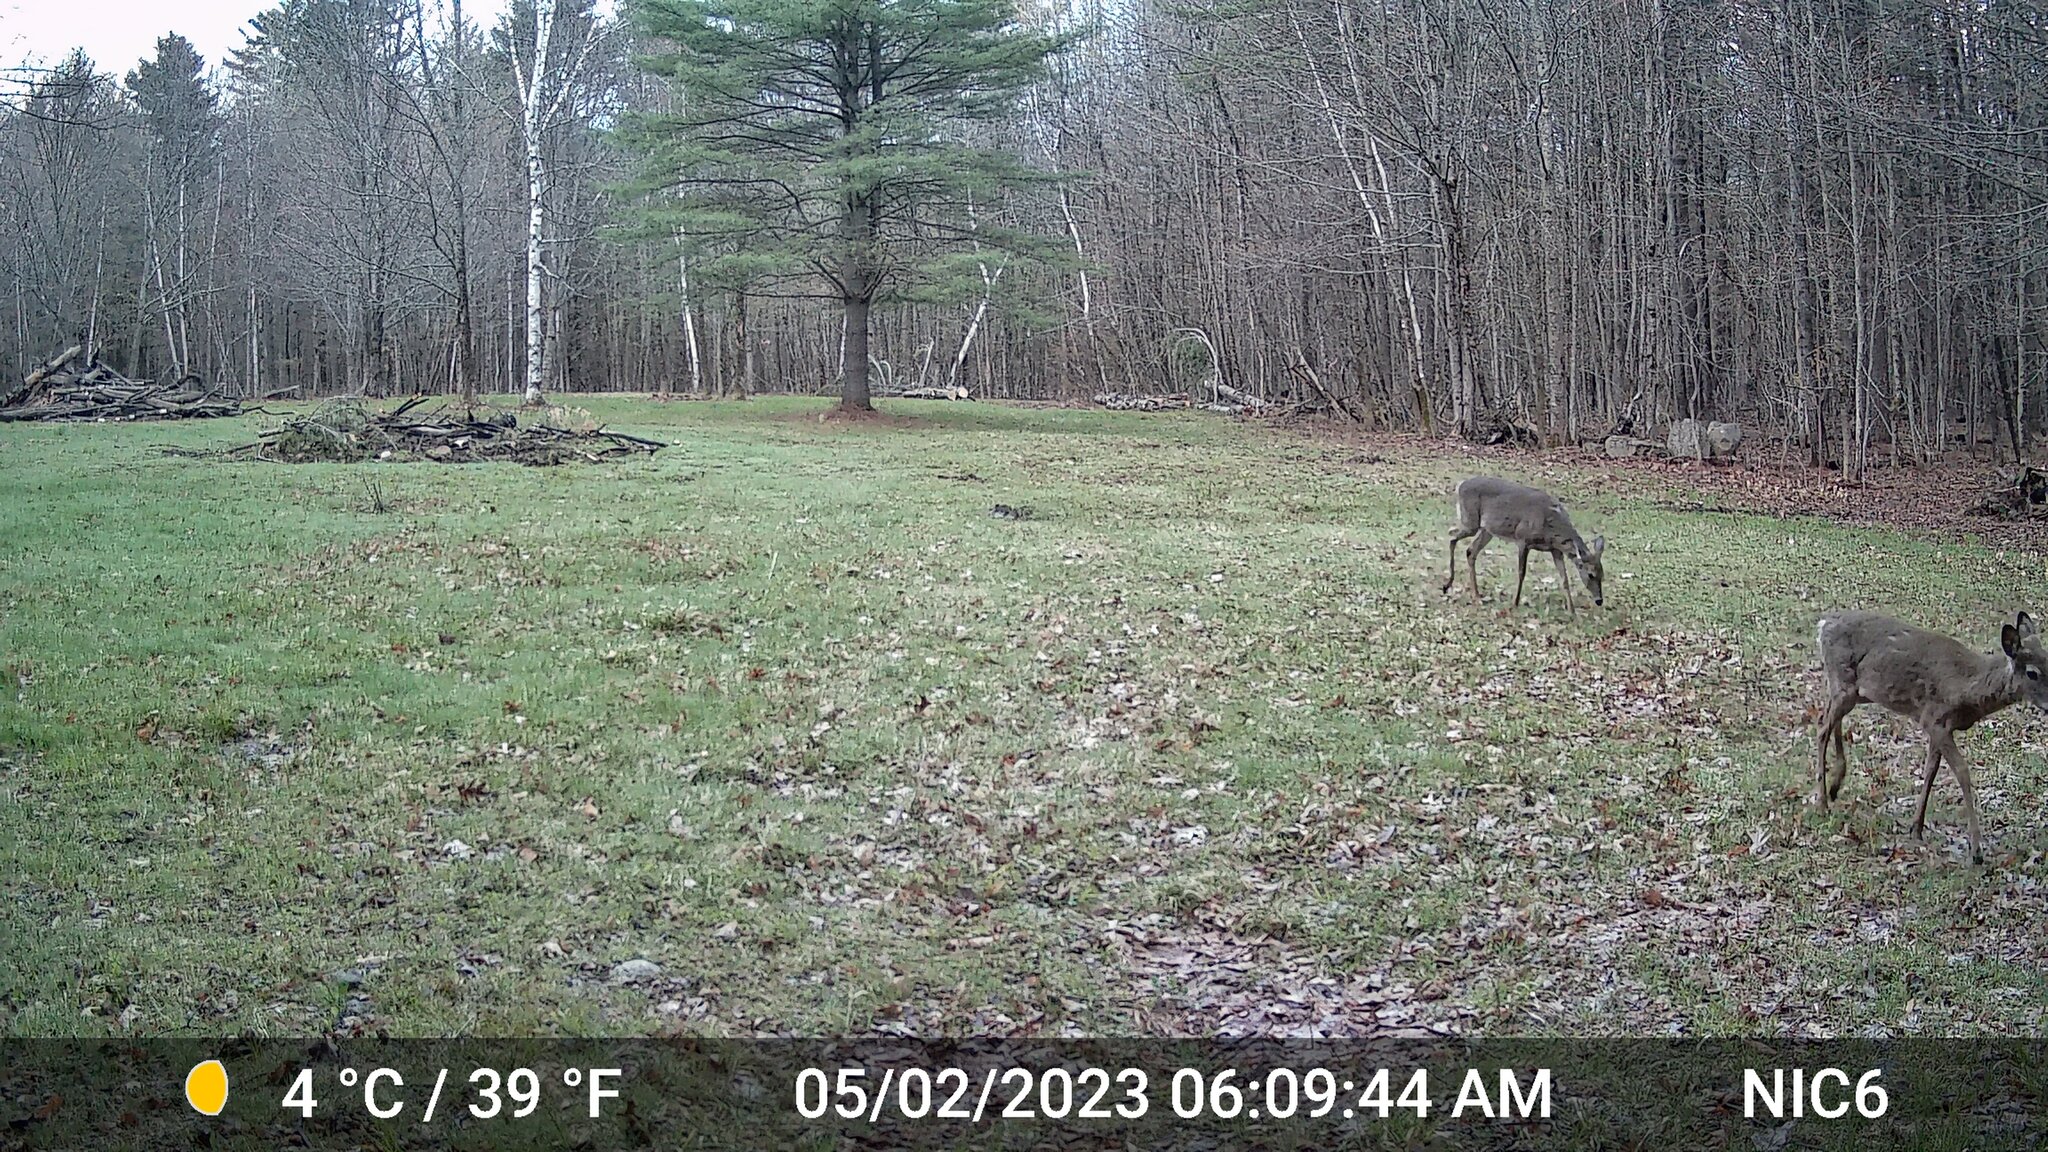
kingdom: Animalia
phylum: Chordata
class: Mammalia
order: Artiodactyla
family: Cervidae
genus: Odocoileus
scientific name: Odocoileus virginianus
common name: White-tailed deer
